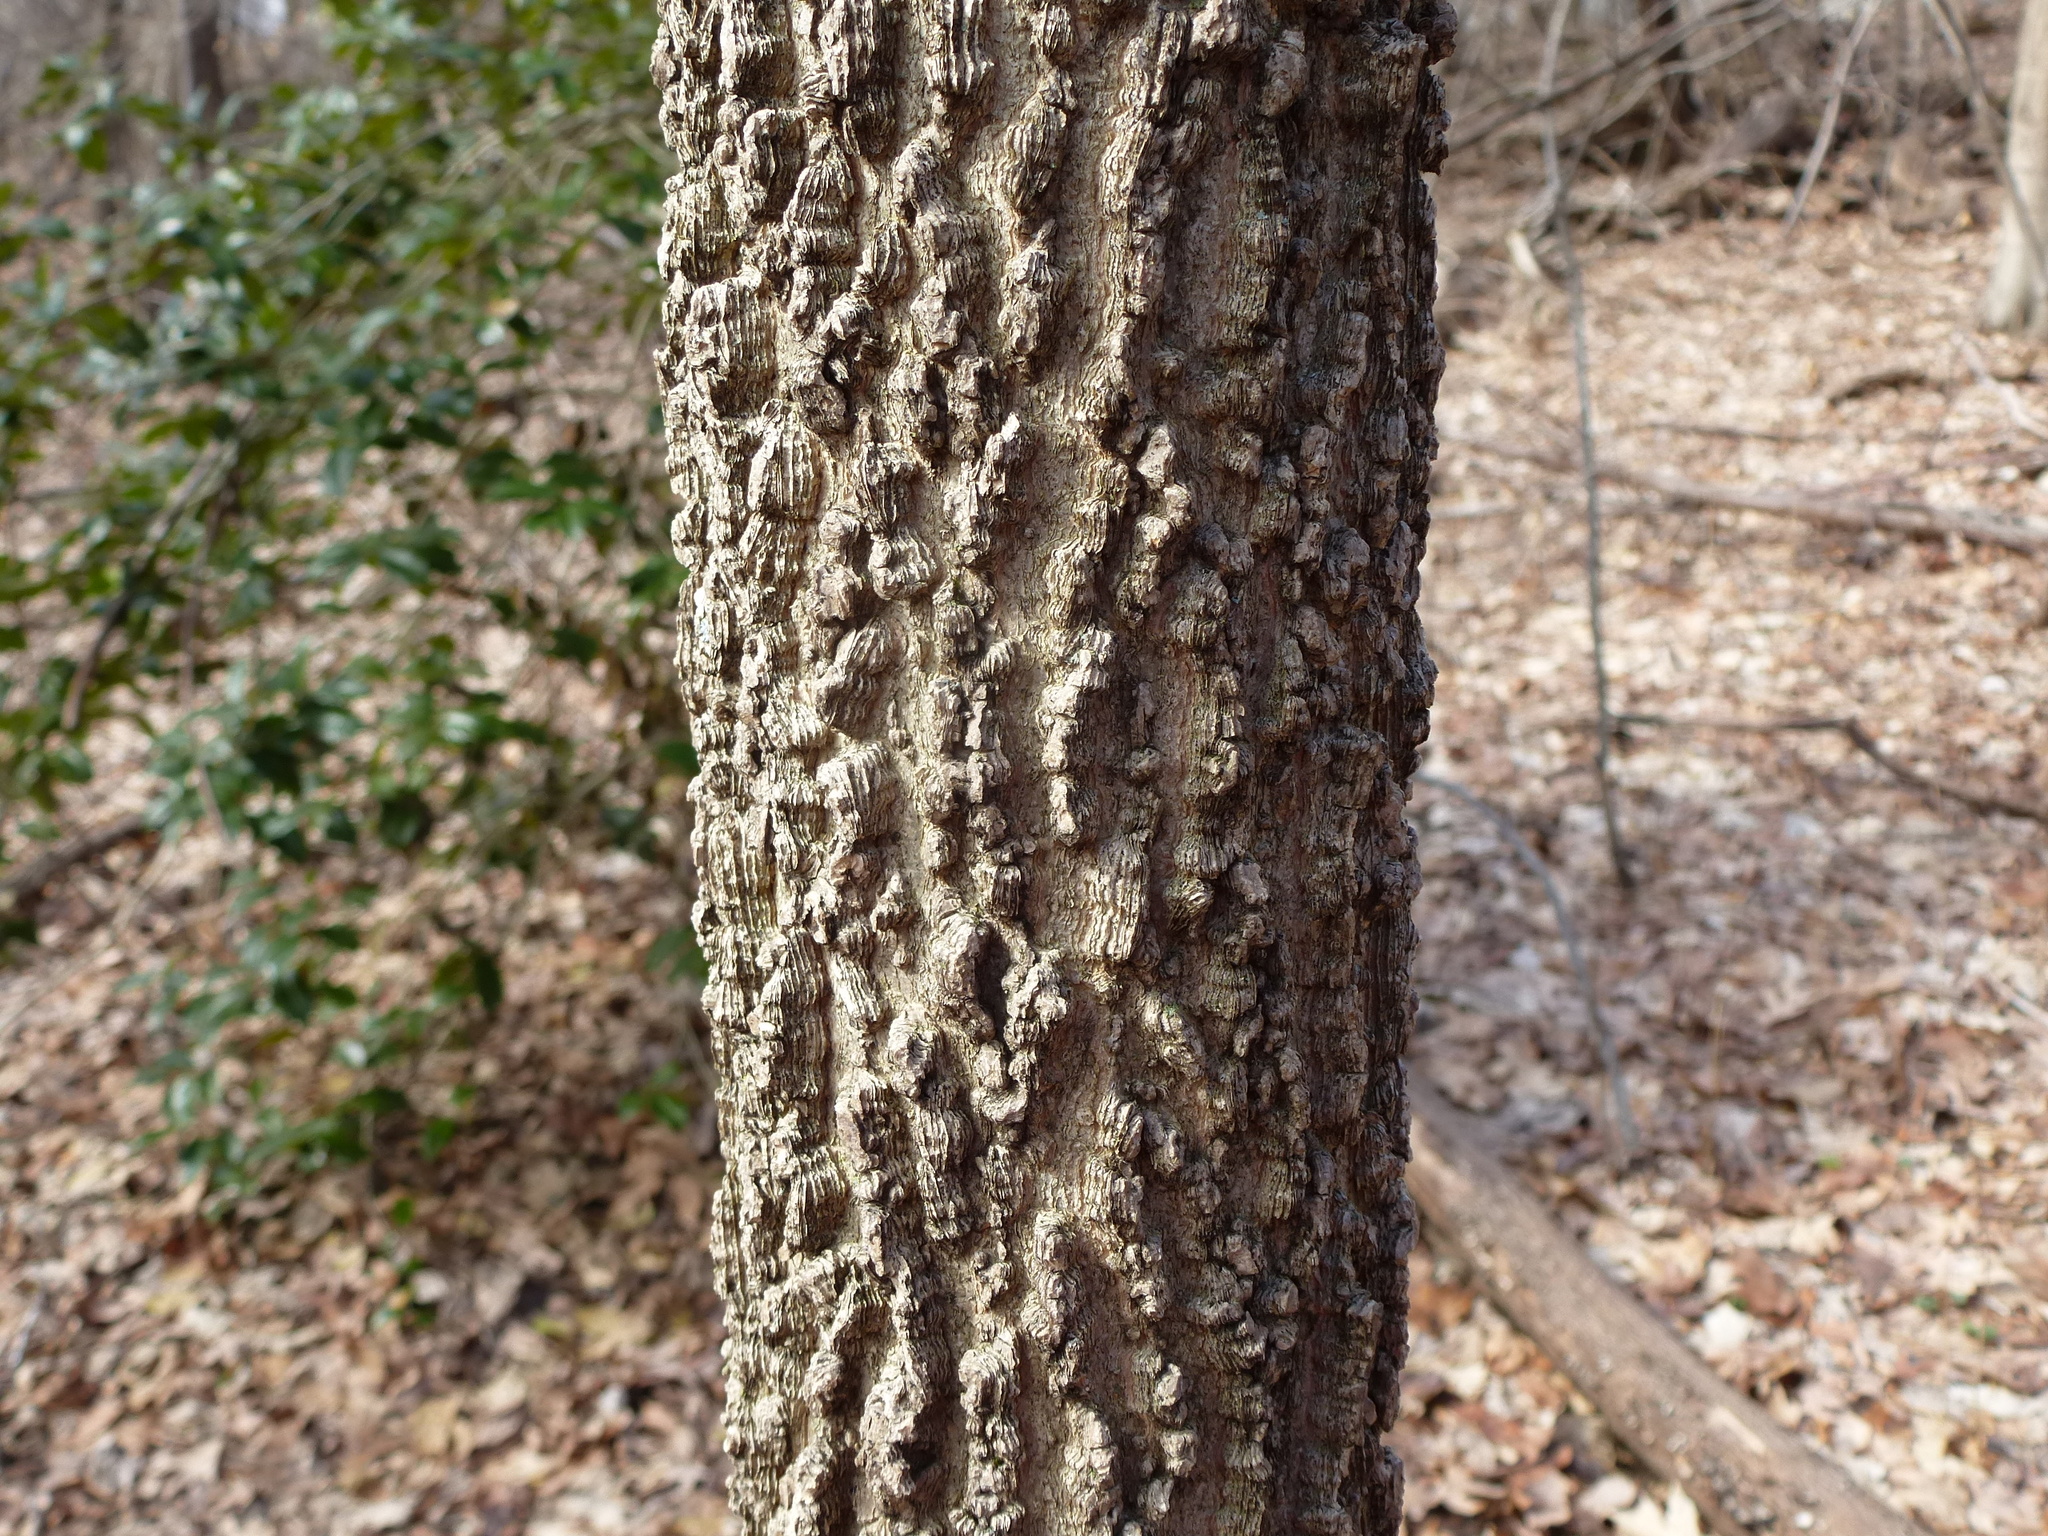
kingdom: Plantae
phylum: Tracheophyta
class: Magnoliopsida
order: Rosales
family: Cannabaceae
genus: Celtis
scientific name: Celtis occidentalis
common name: Common hackberry
